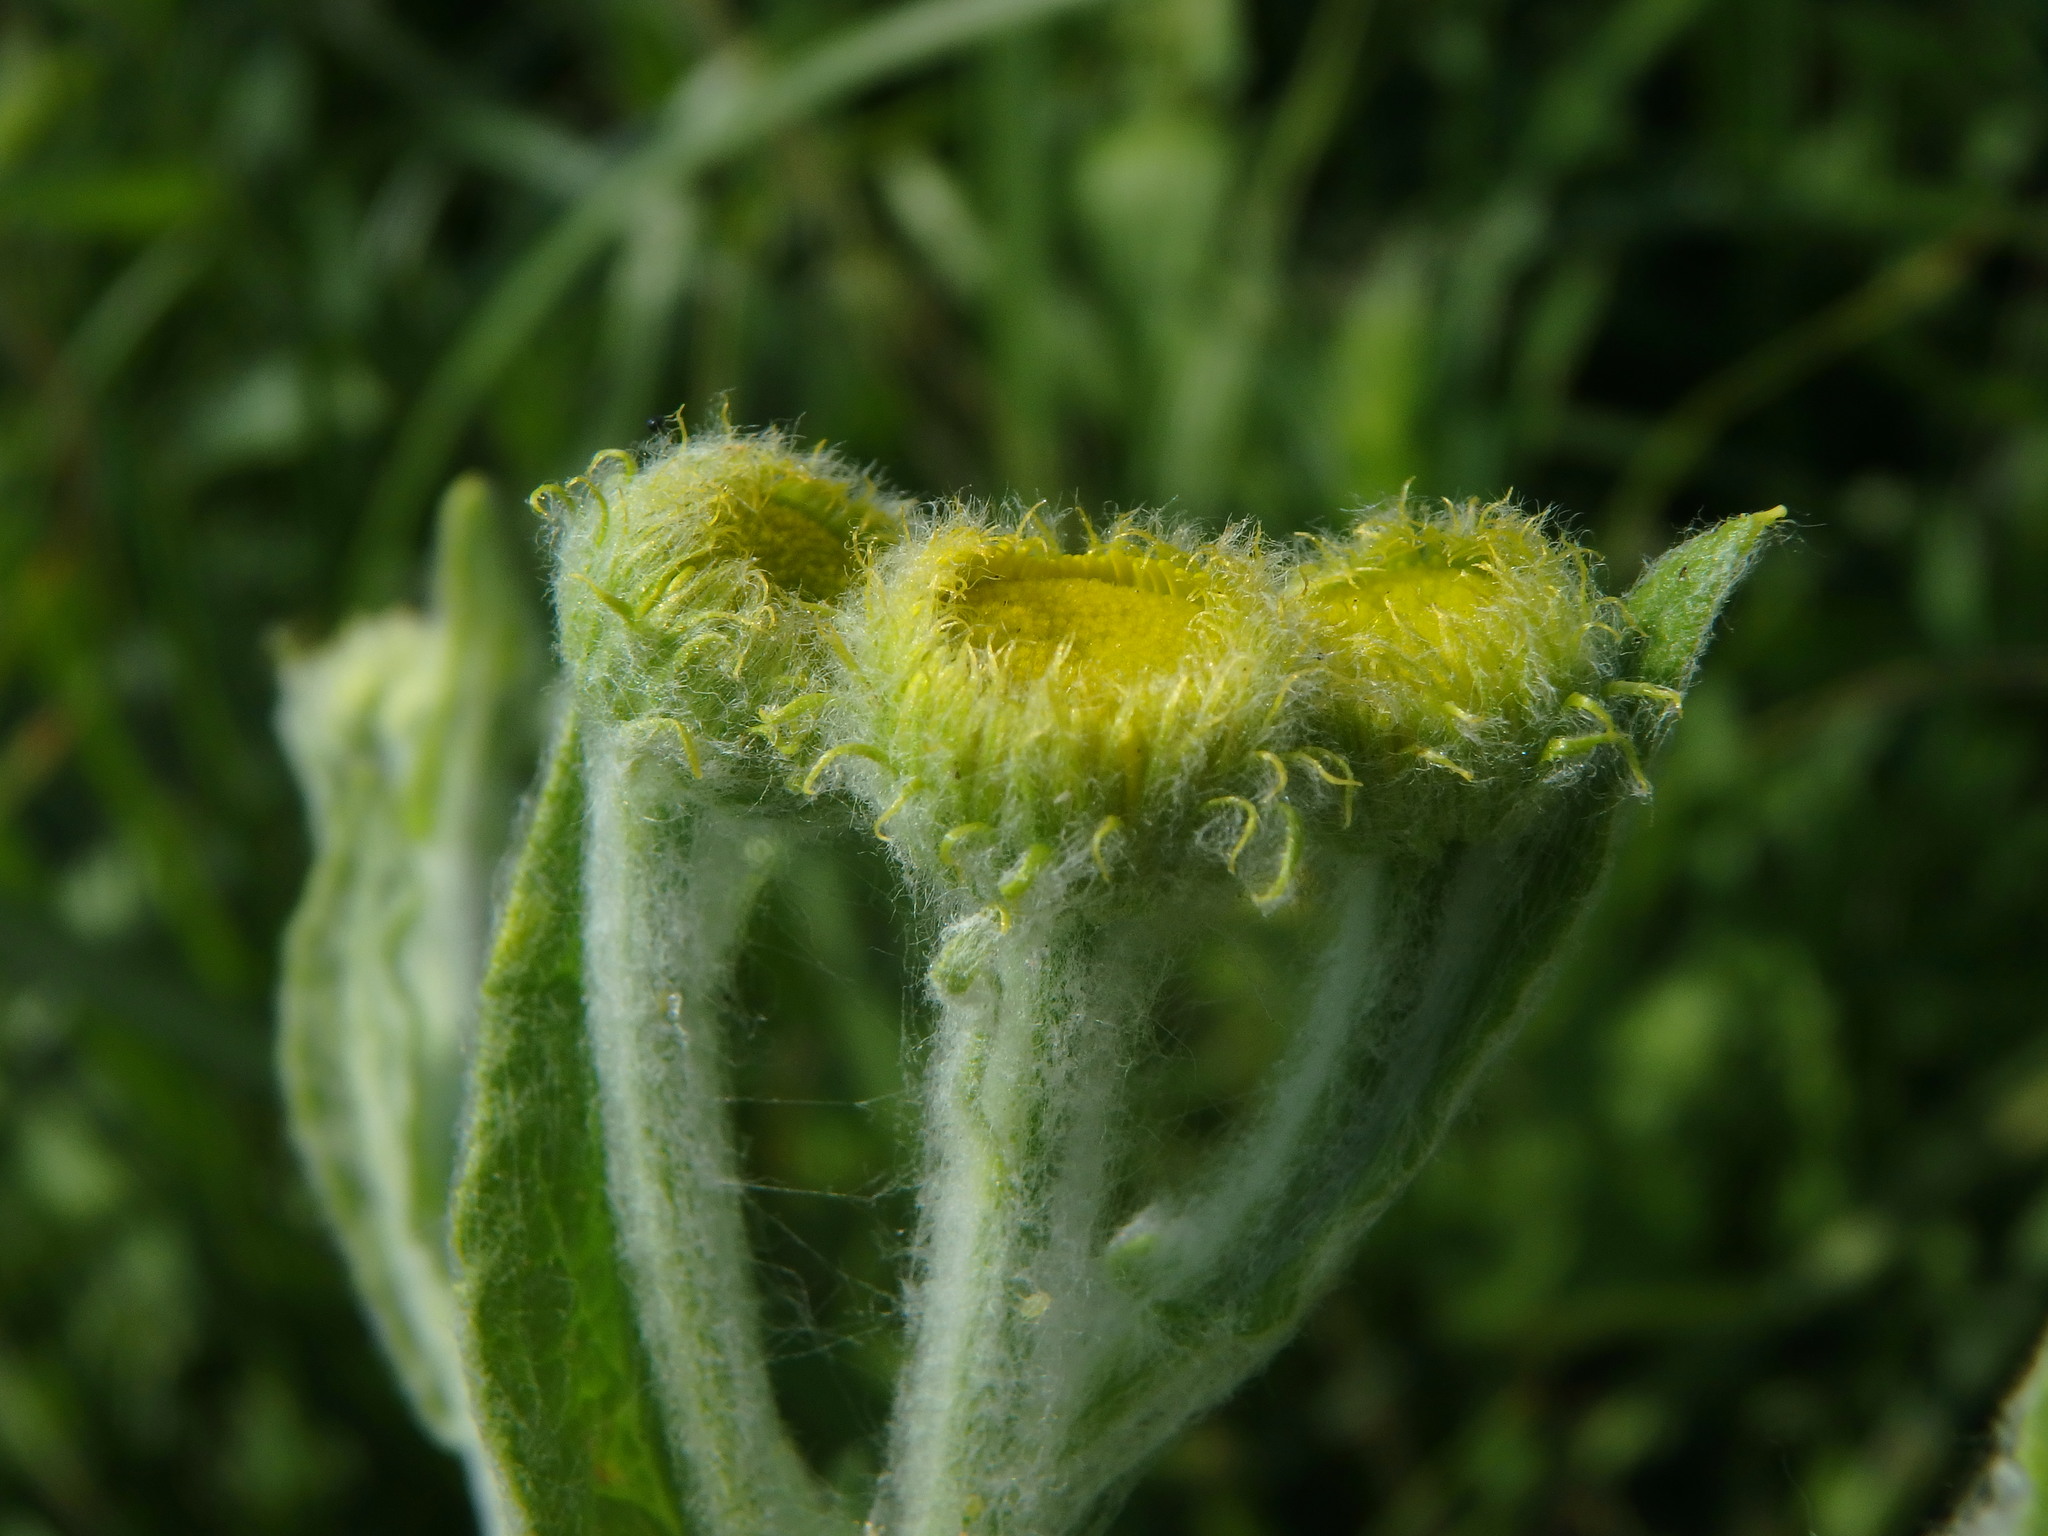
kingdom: Plantae
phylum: Tracheophyta
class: Magnoliopsida
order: Asterales
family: Asteraceae
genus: Pulicaria
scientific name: Pulicaria dysenterica
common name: Common fleabane
